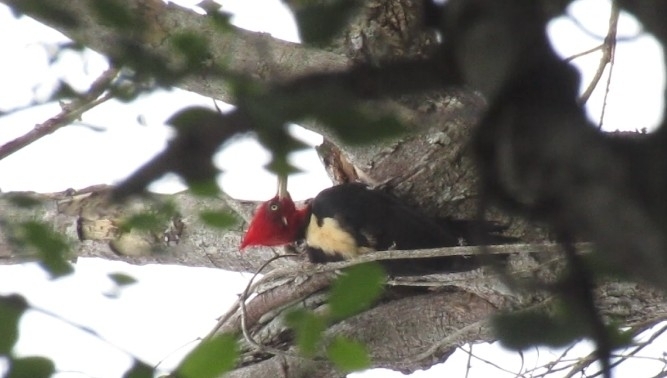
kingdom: Animalia
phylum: Chordata
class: Aves
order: Piciformes
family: Picidae
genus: Campephilus
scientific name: Campephilus leucopogon
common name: Cream-backed woodpecker
